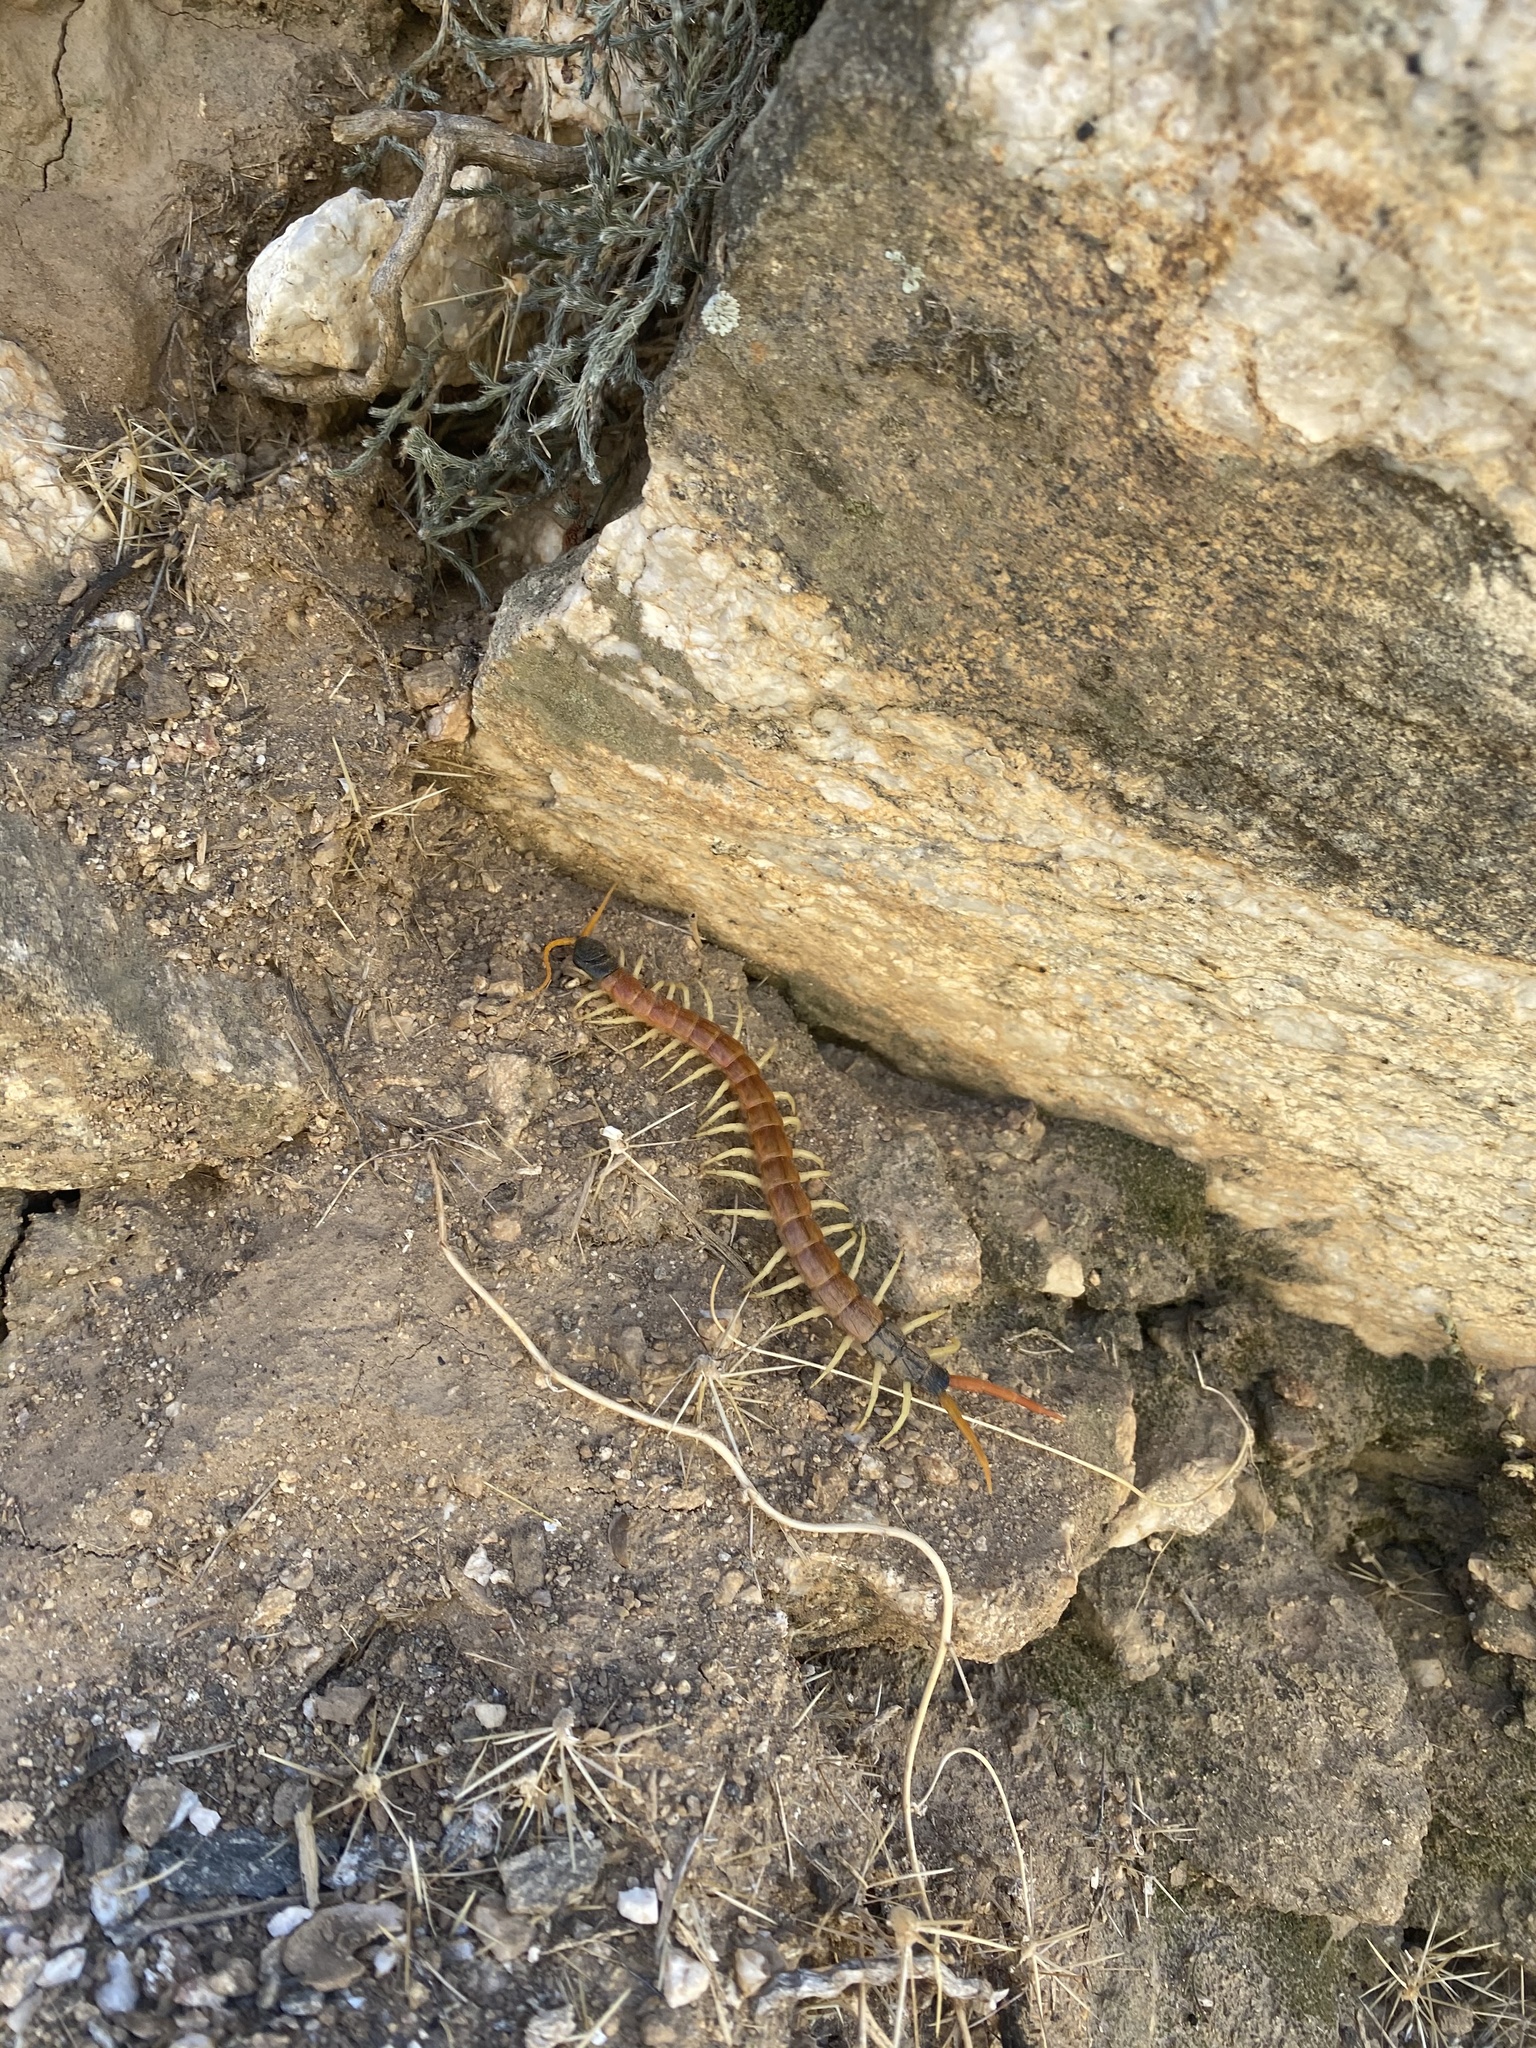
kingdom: Animalia
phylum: Arthropoda
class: Chilopoda
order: Scolopendromorpha
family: Scolopendridae
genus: Scolopendra
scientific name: Scolopendra heros
